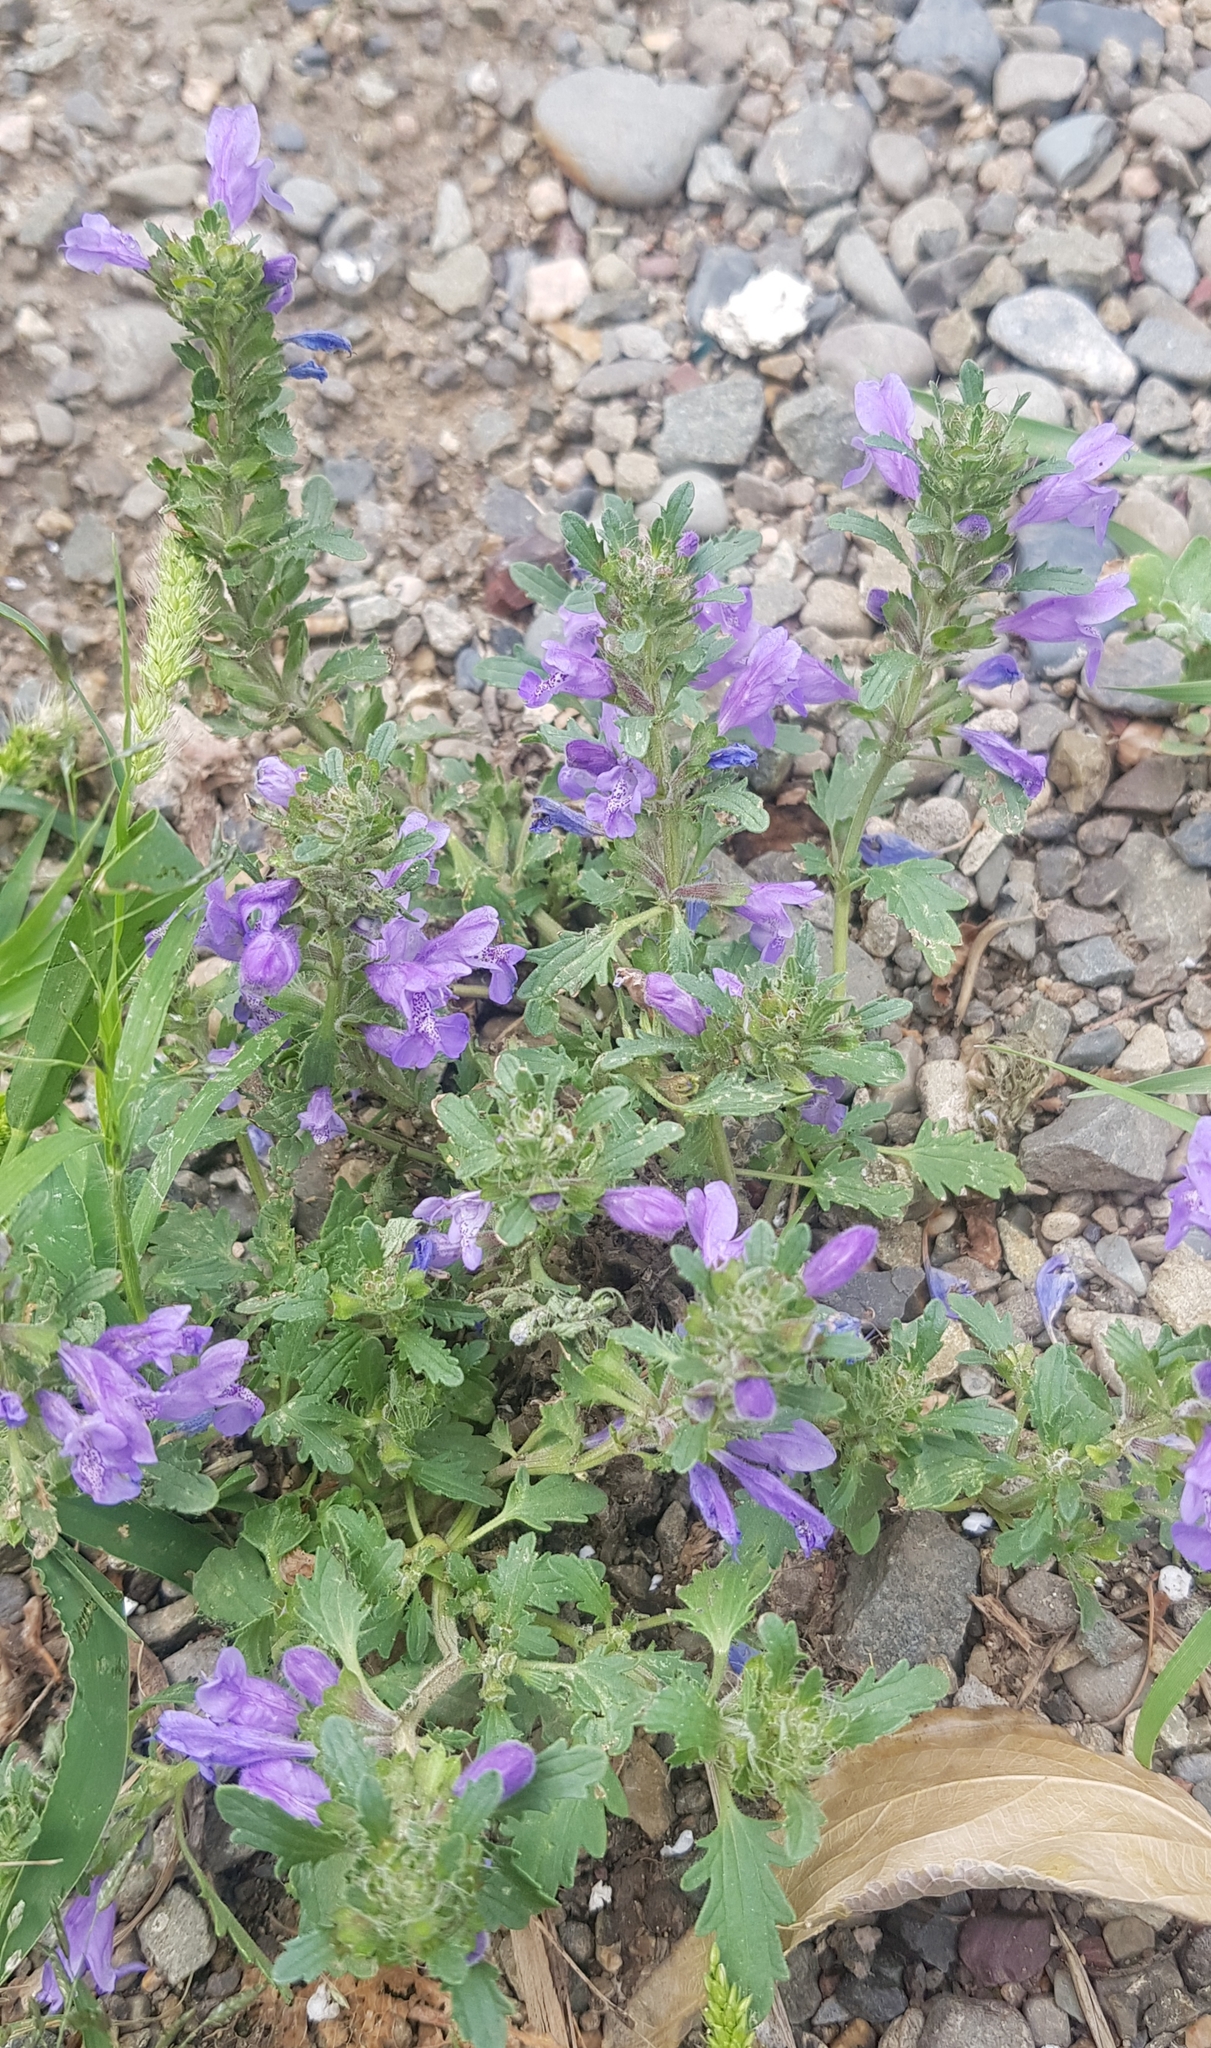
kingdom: Plantae
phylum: Tracheophyta
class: Magnoliopsida
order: Lamiales
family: Lamiaceae
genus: Dracocephalum
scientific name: Dracocephalum foetidum
